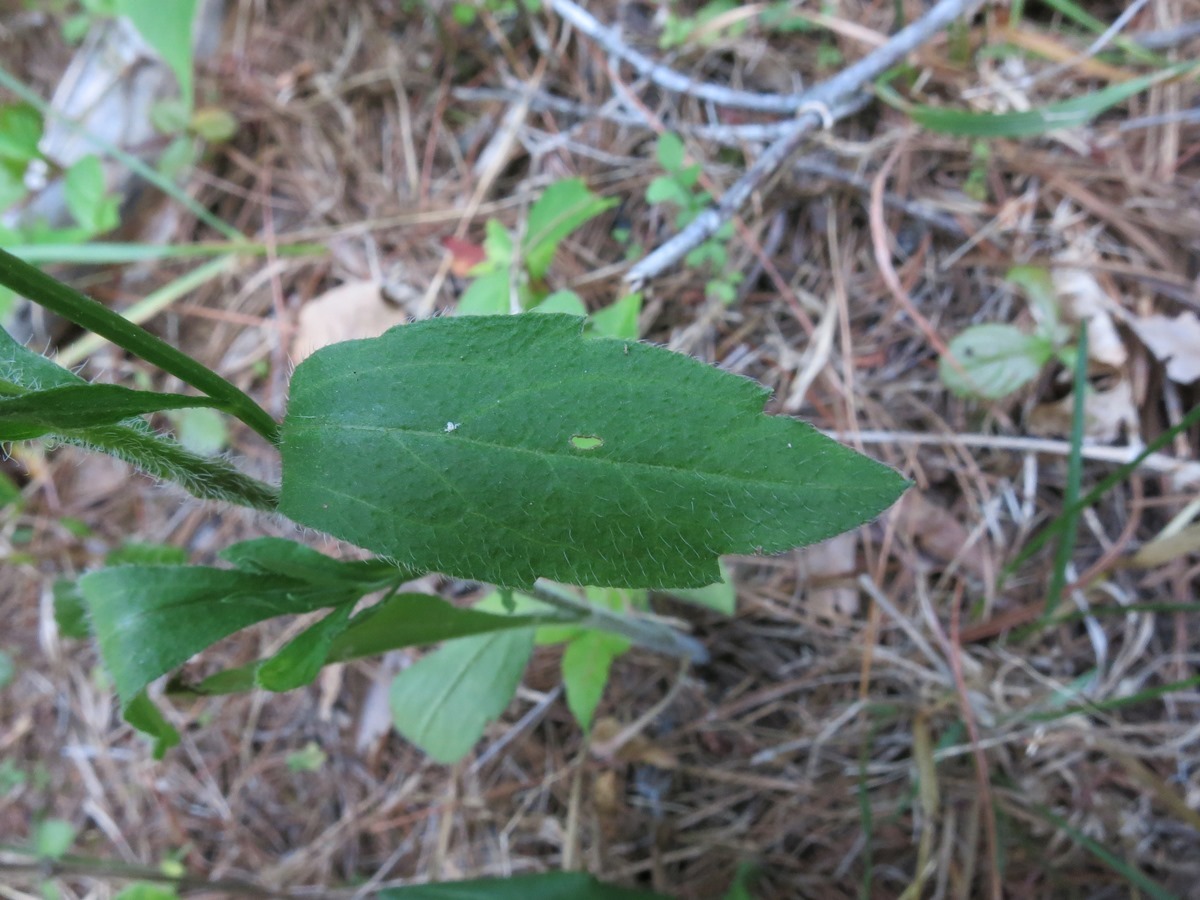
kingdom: Plantae
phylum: Tracheophyta
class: Magnoliopsida
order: Asterales
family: Asteraceae
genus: Erigeron
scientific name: Erigeron annuus
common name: Tall fleabane
